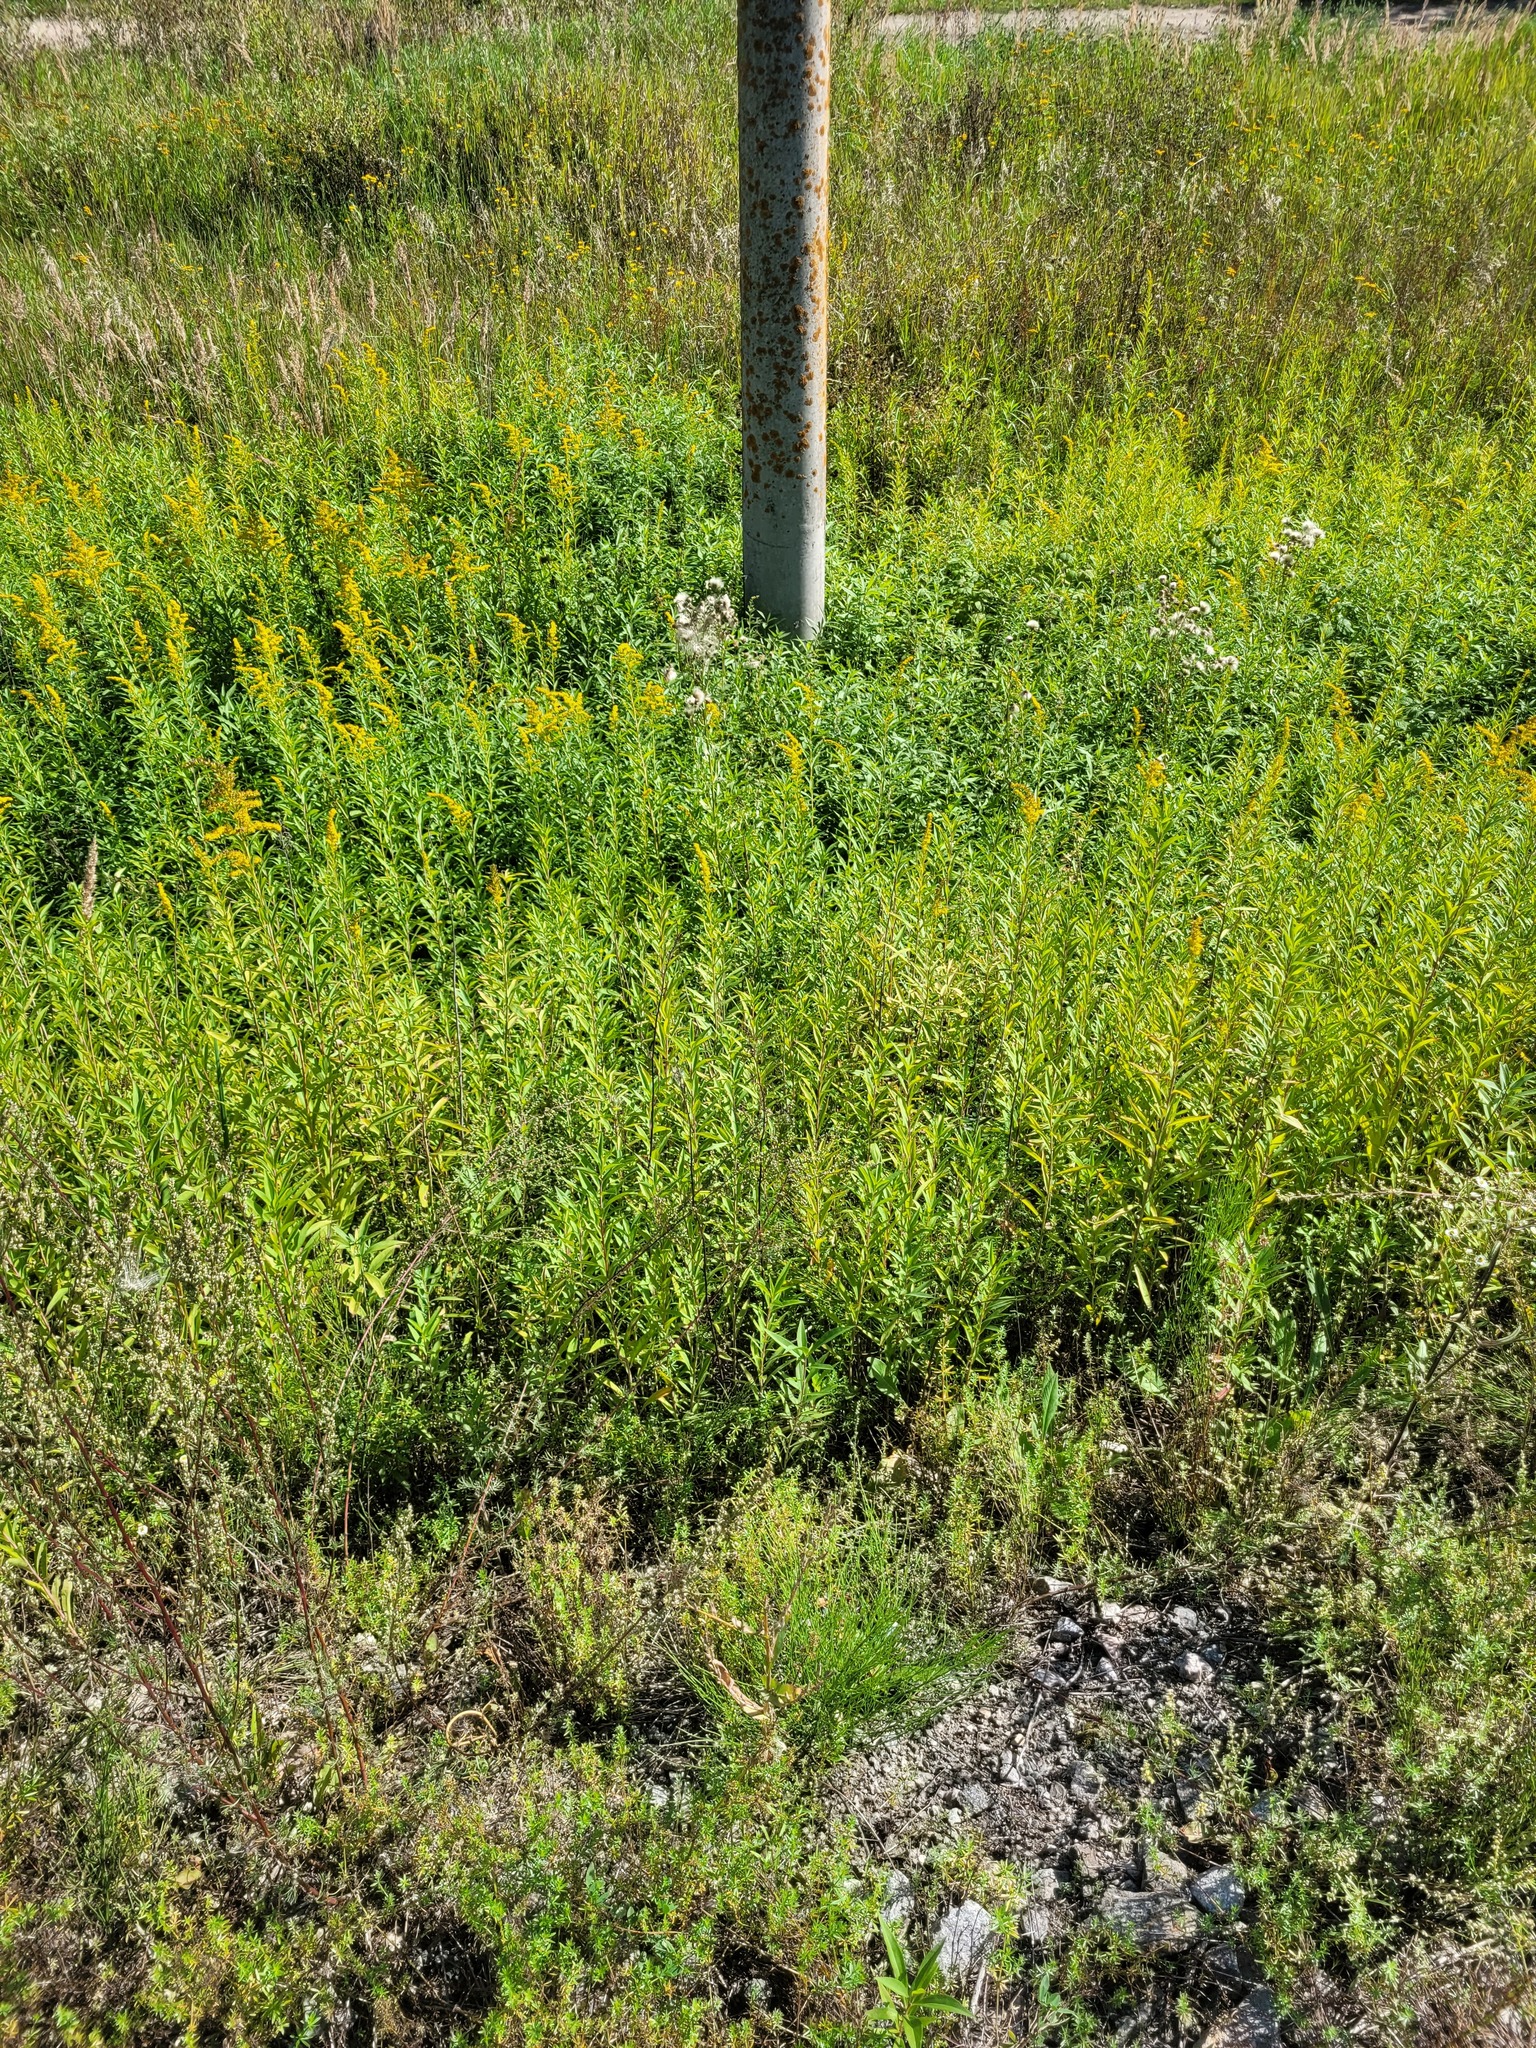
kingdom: Plantae
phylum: Tracheophyta
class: Magnoliopsida
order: Asterales
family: Asteraceae
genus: Solidago
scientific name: Solidago gigantea
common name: Giant goldenrod
